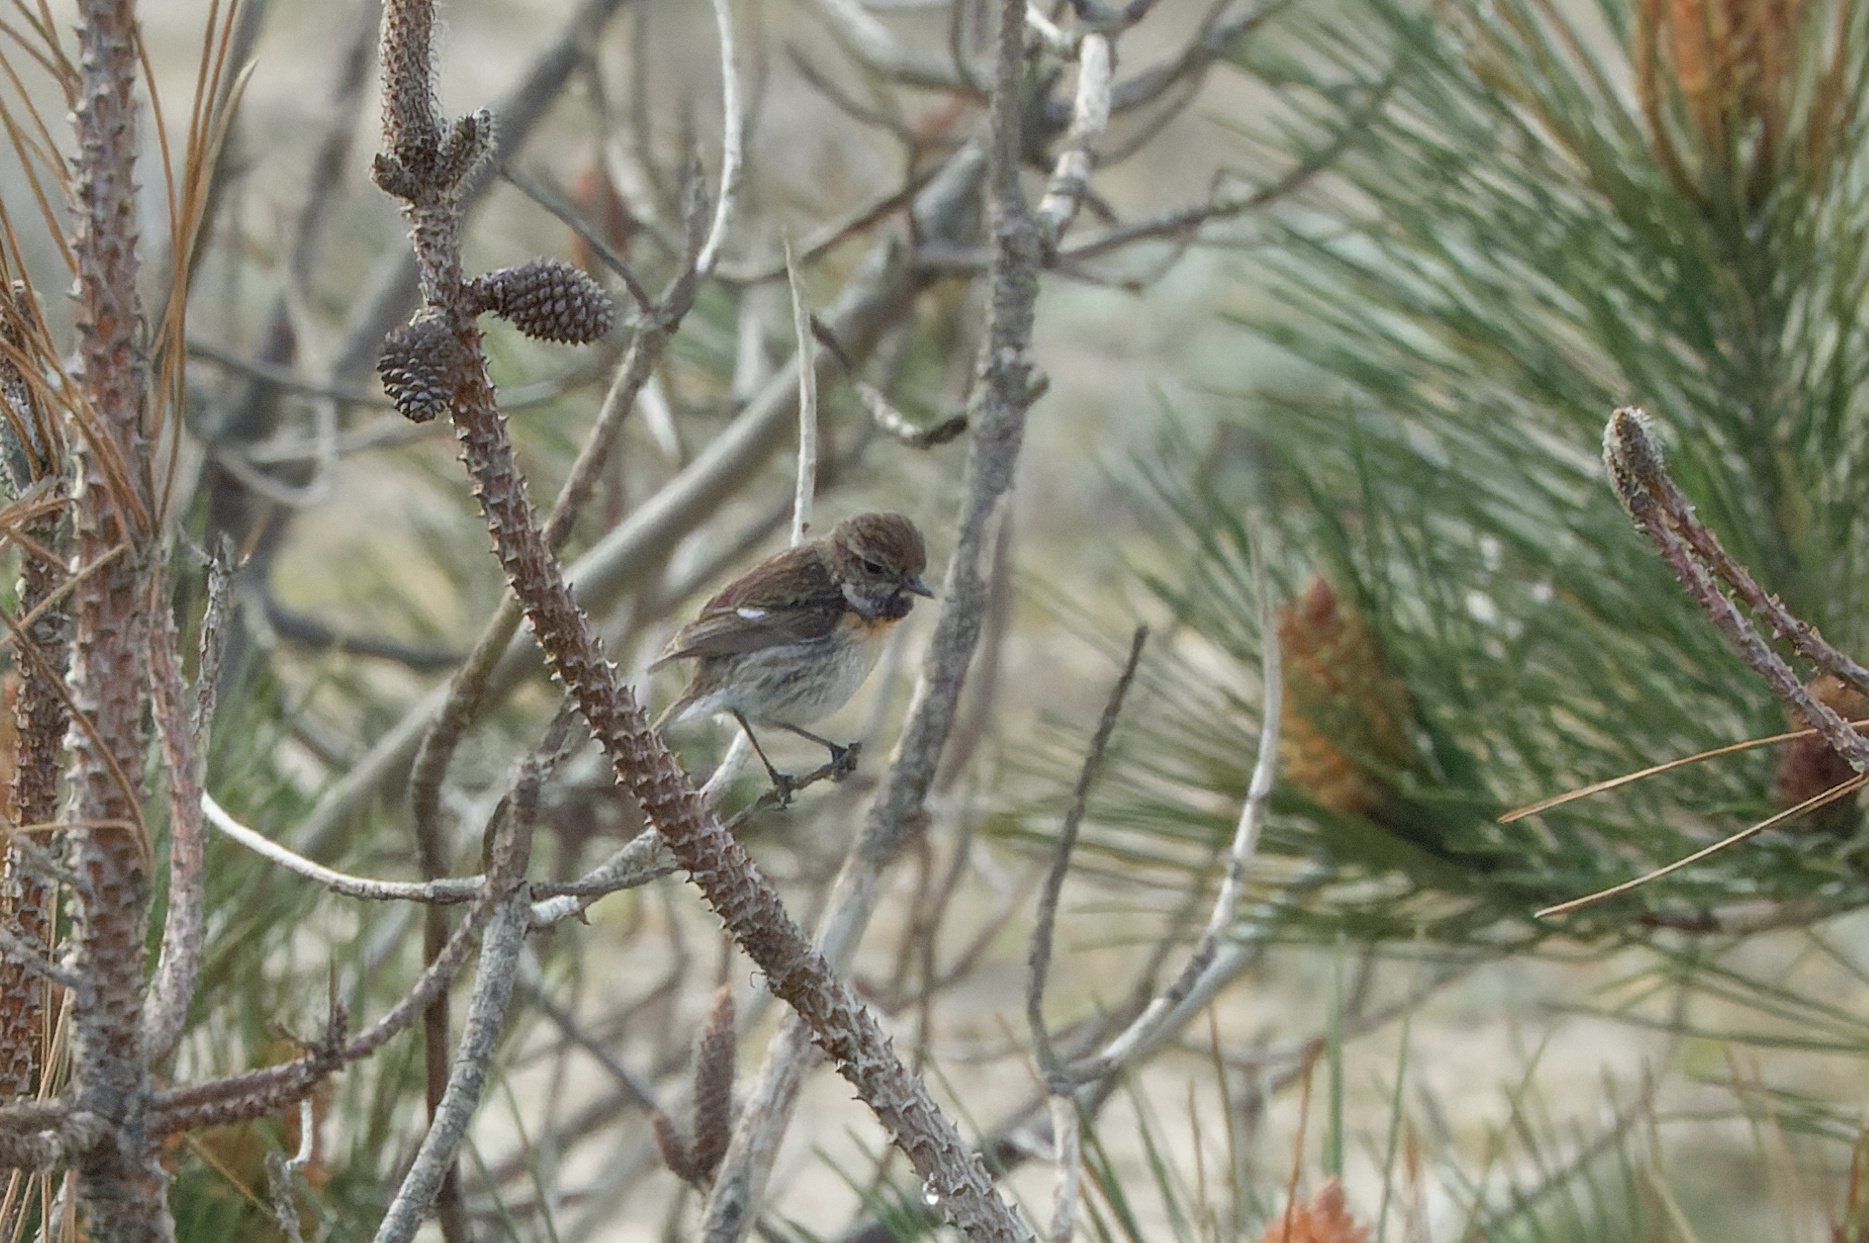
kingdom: Animalia
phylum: Chordata
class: Aves
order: Passeriformes
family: Muscicapidae
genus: Saxicola
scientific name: Saxicola rubicola
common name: European stonechat
